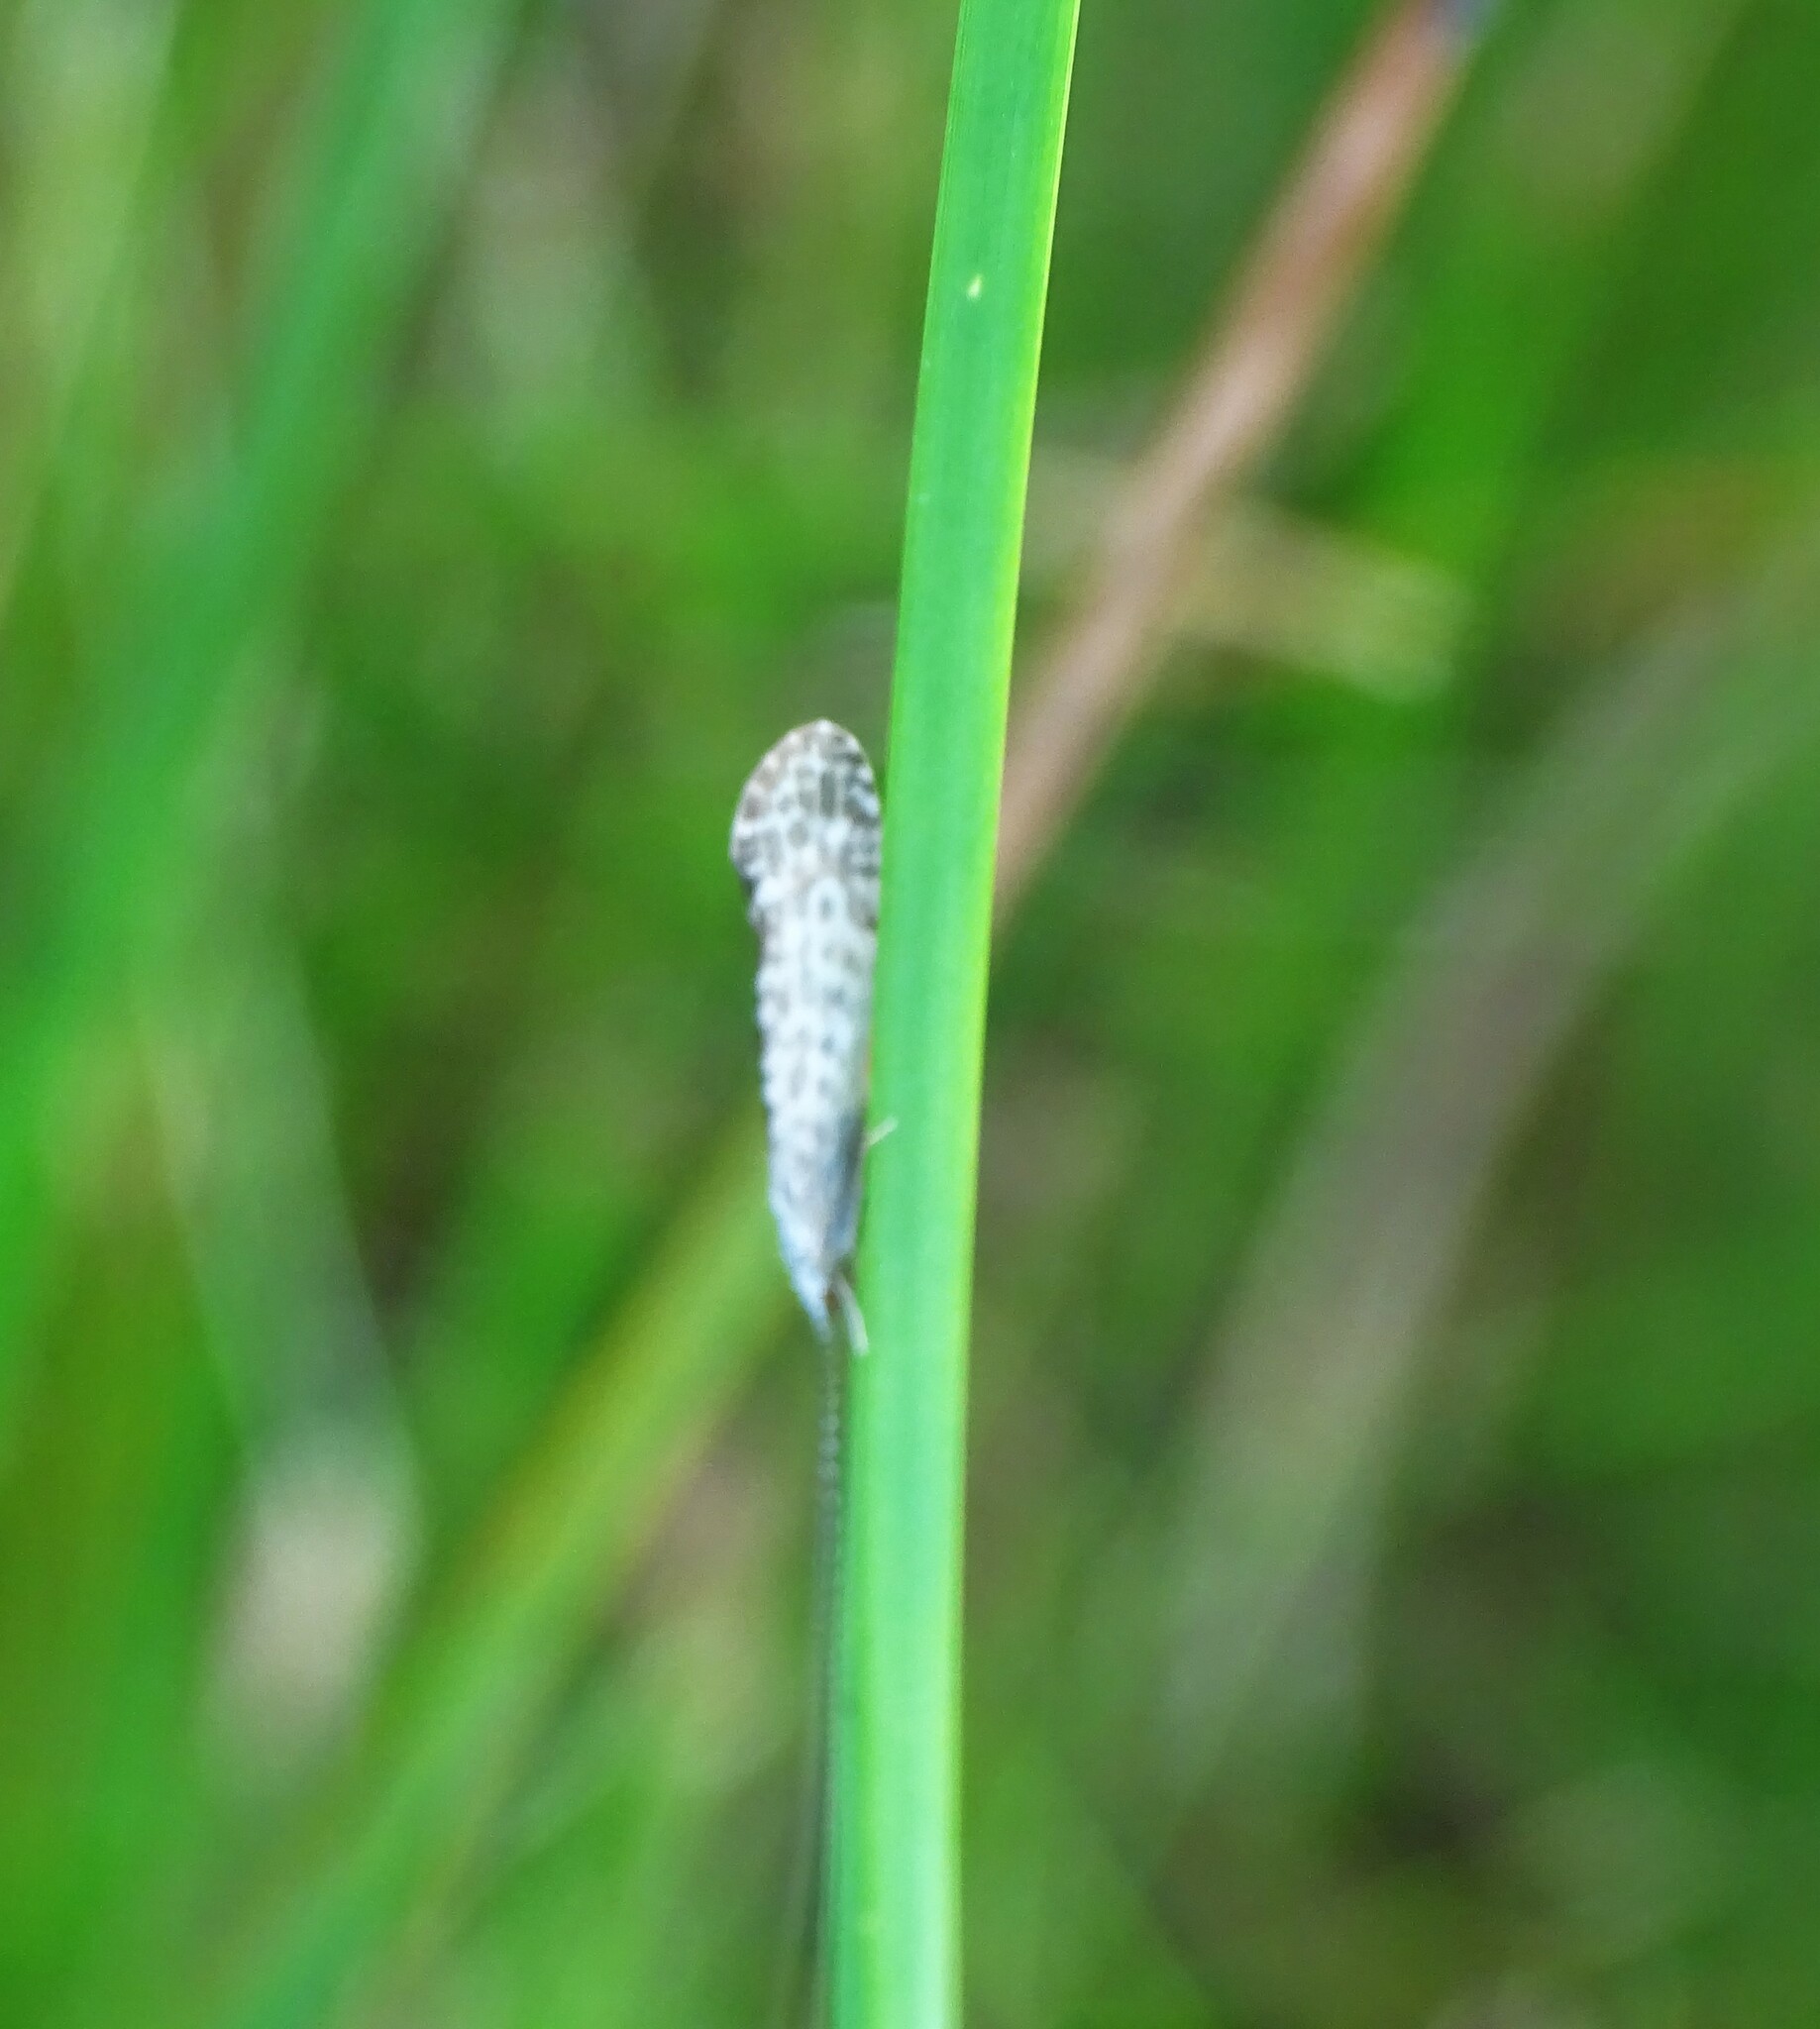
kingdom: Animalia
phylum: Arthropoda
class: Insecta
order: Trichoptera
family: Leptoceridae
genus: Nectopsyche
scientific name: Nectopsyche exquisita
